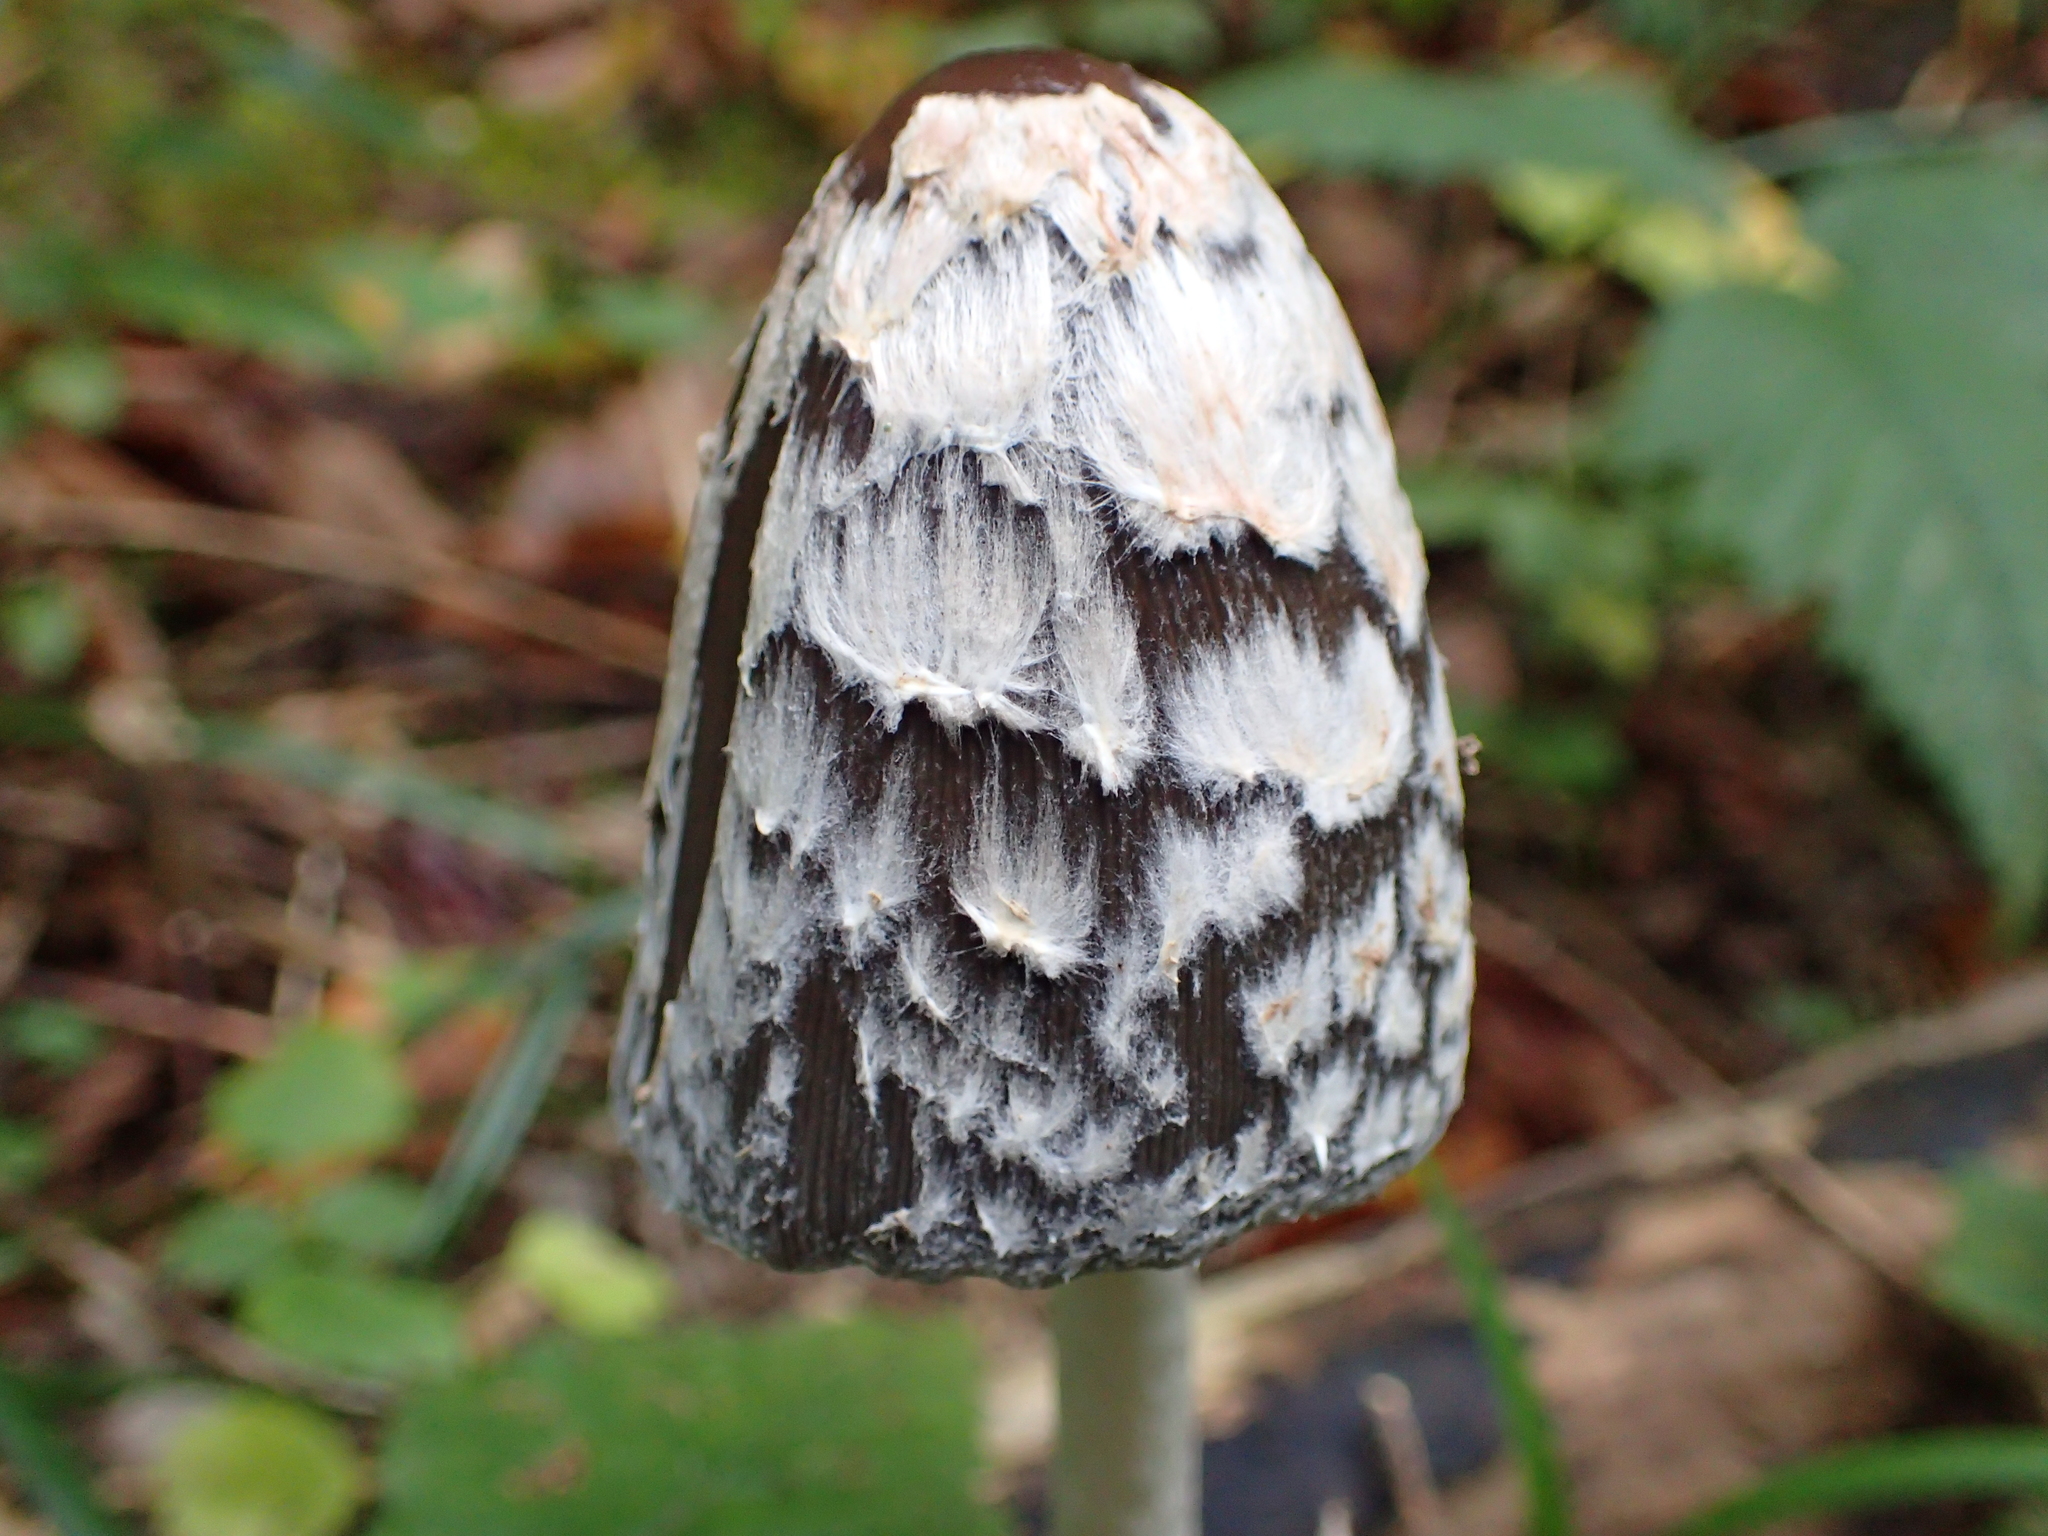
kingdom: Fungi
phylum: Basidiomycota
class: Agaricomycetes
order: Agaricales
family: Psathyrellaceae
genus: Coprinopsis
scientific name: Coprinopsis picacea
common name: Magpie inkcap
